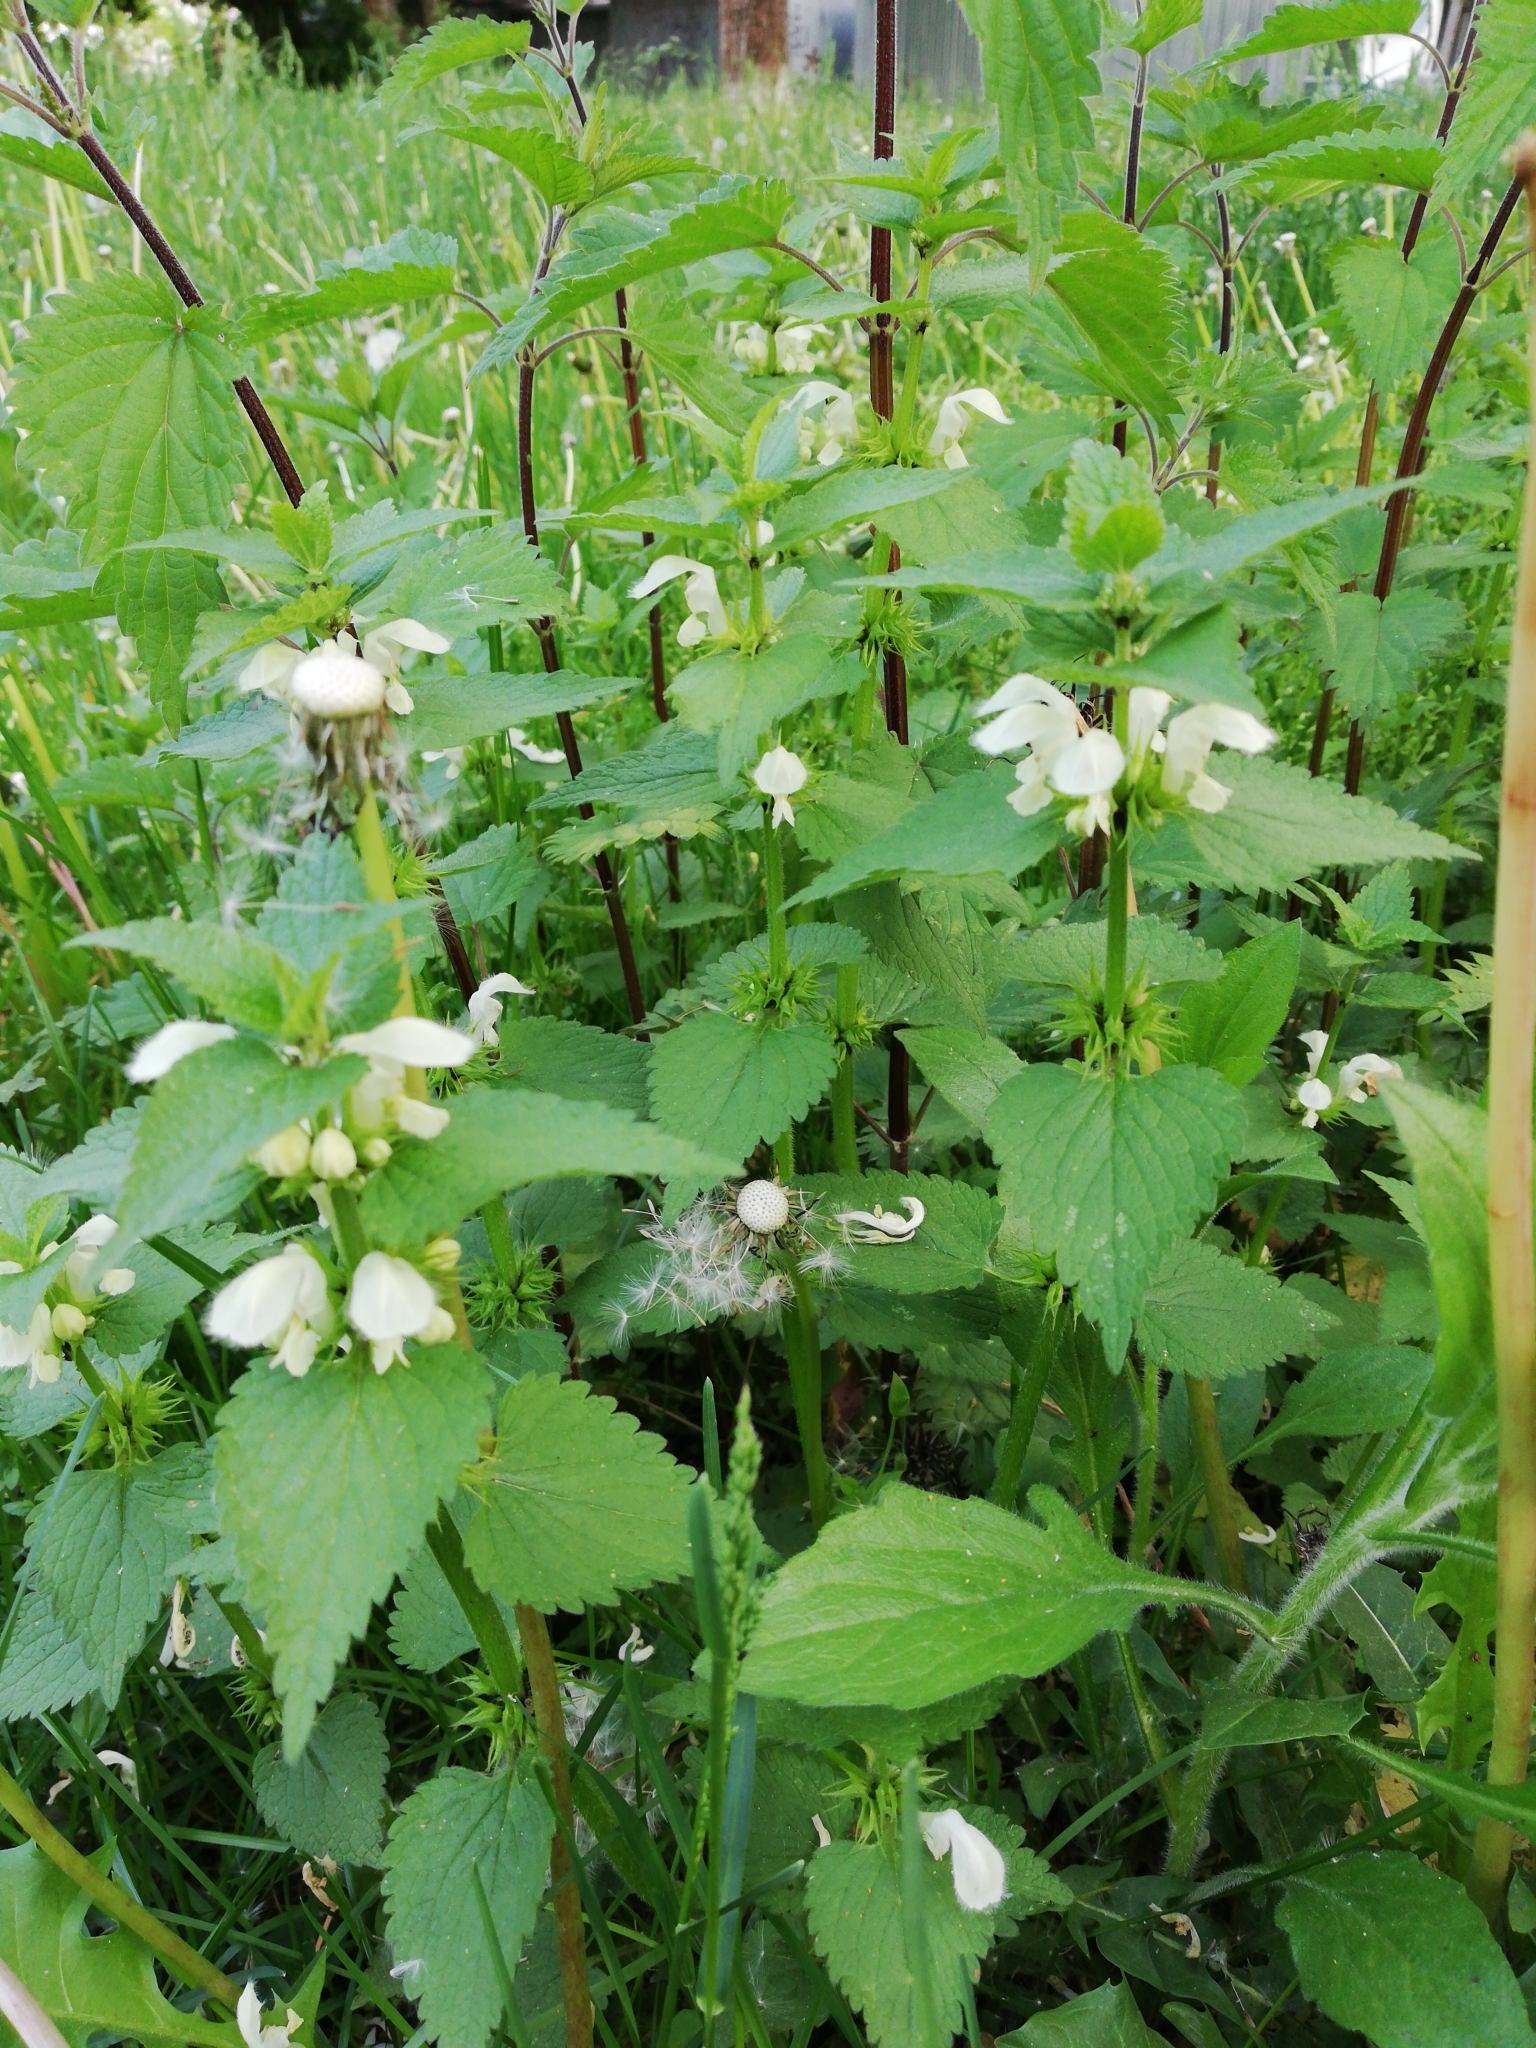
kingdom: Plantae
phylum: Tracheophyta
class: Magnoliopsida
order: Lamiales
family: Lamiaceae
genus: Lamium
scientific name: Lamium album
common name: White dead-nettle
